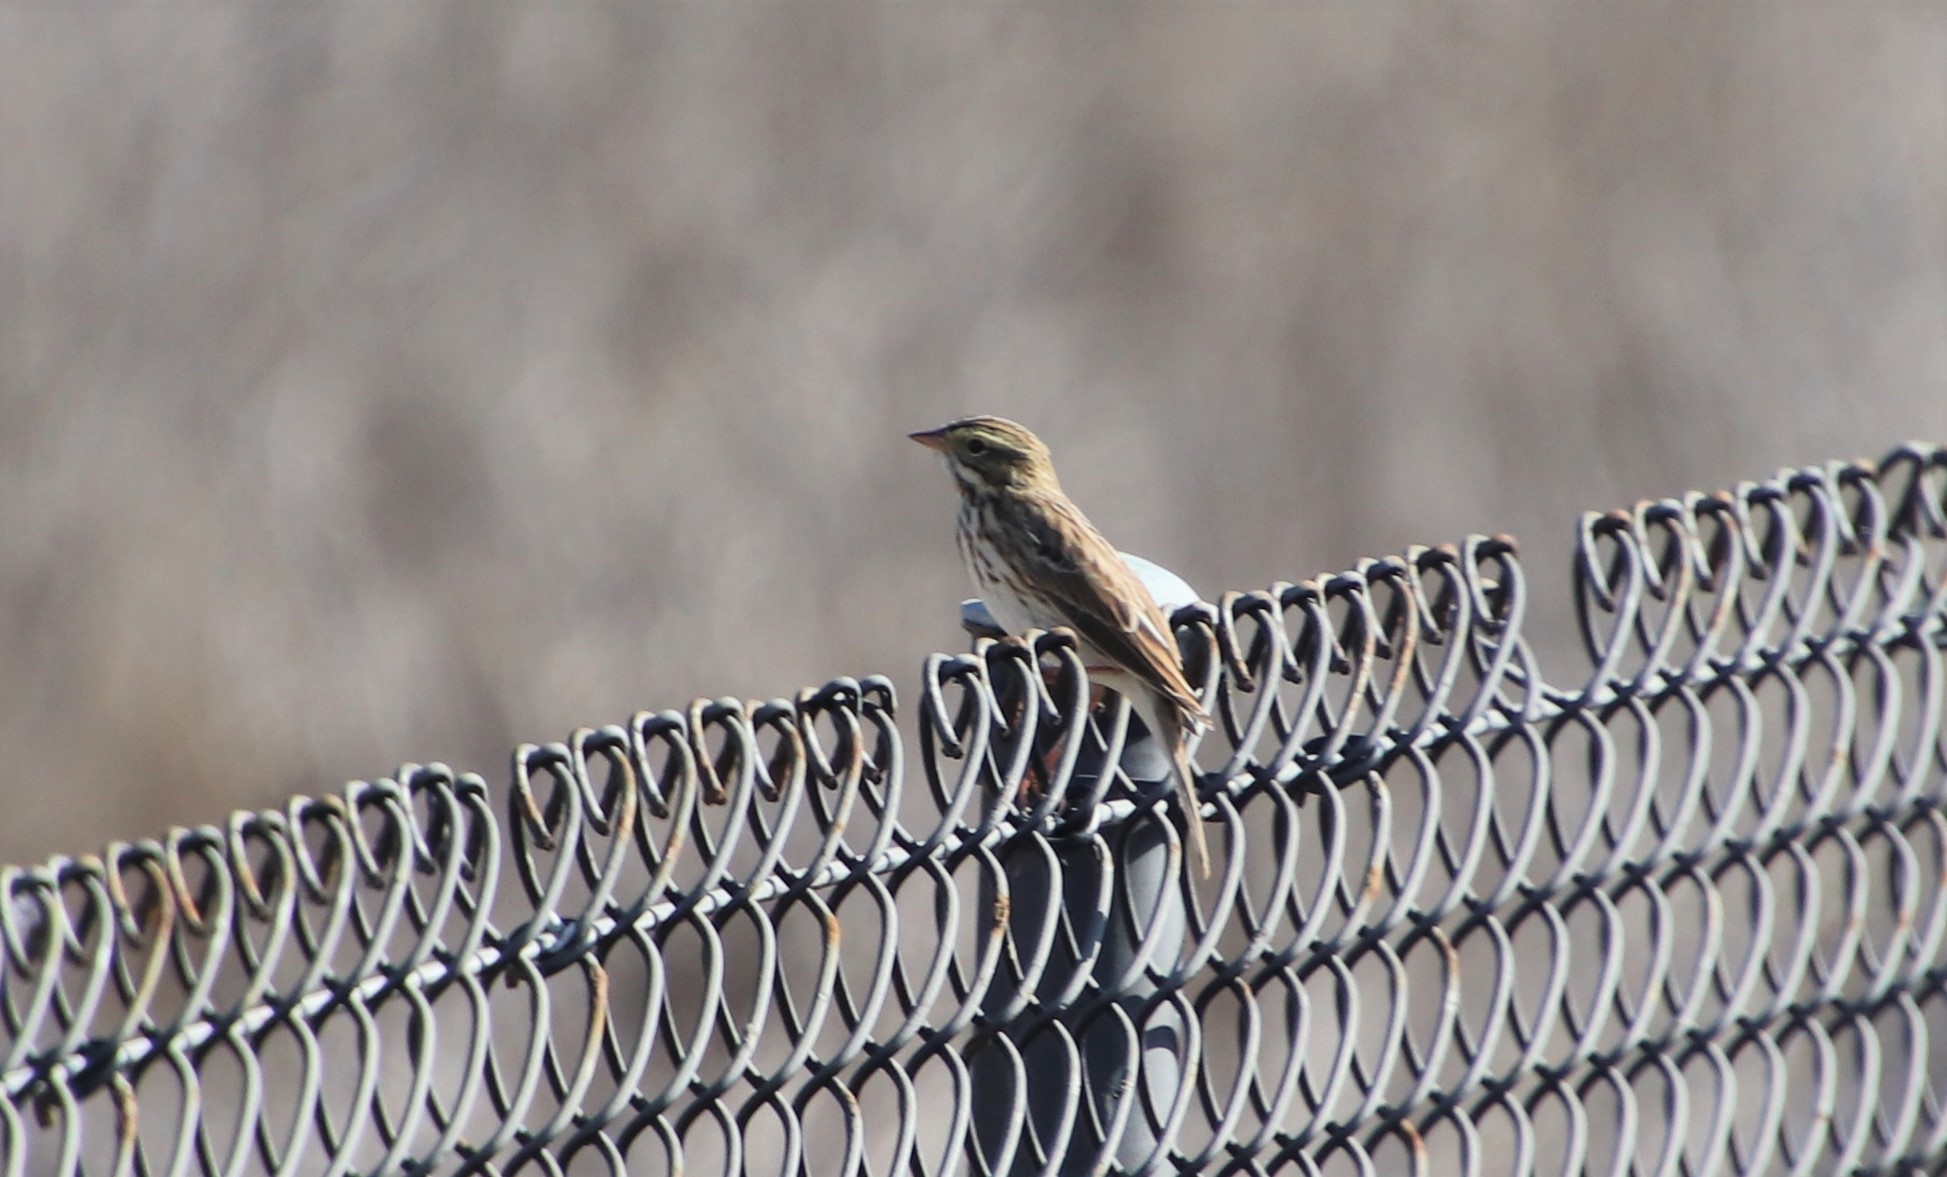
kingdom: Animalia
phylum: Chordata
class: Aves
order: Passeriformes
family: Passerellidae
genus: Passerculus
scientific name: Passerculus sandwichensis
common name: Savannah sparrow
